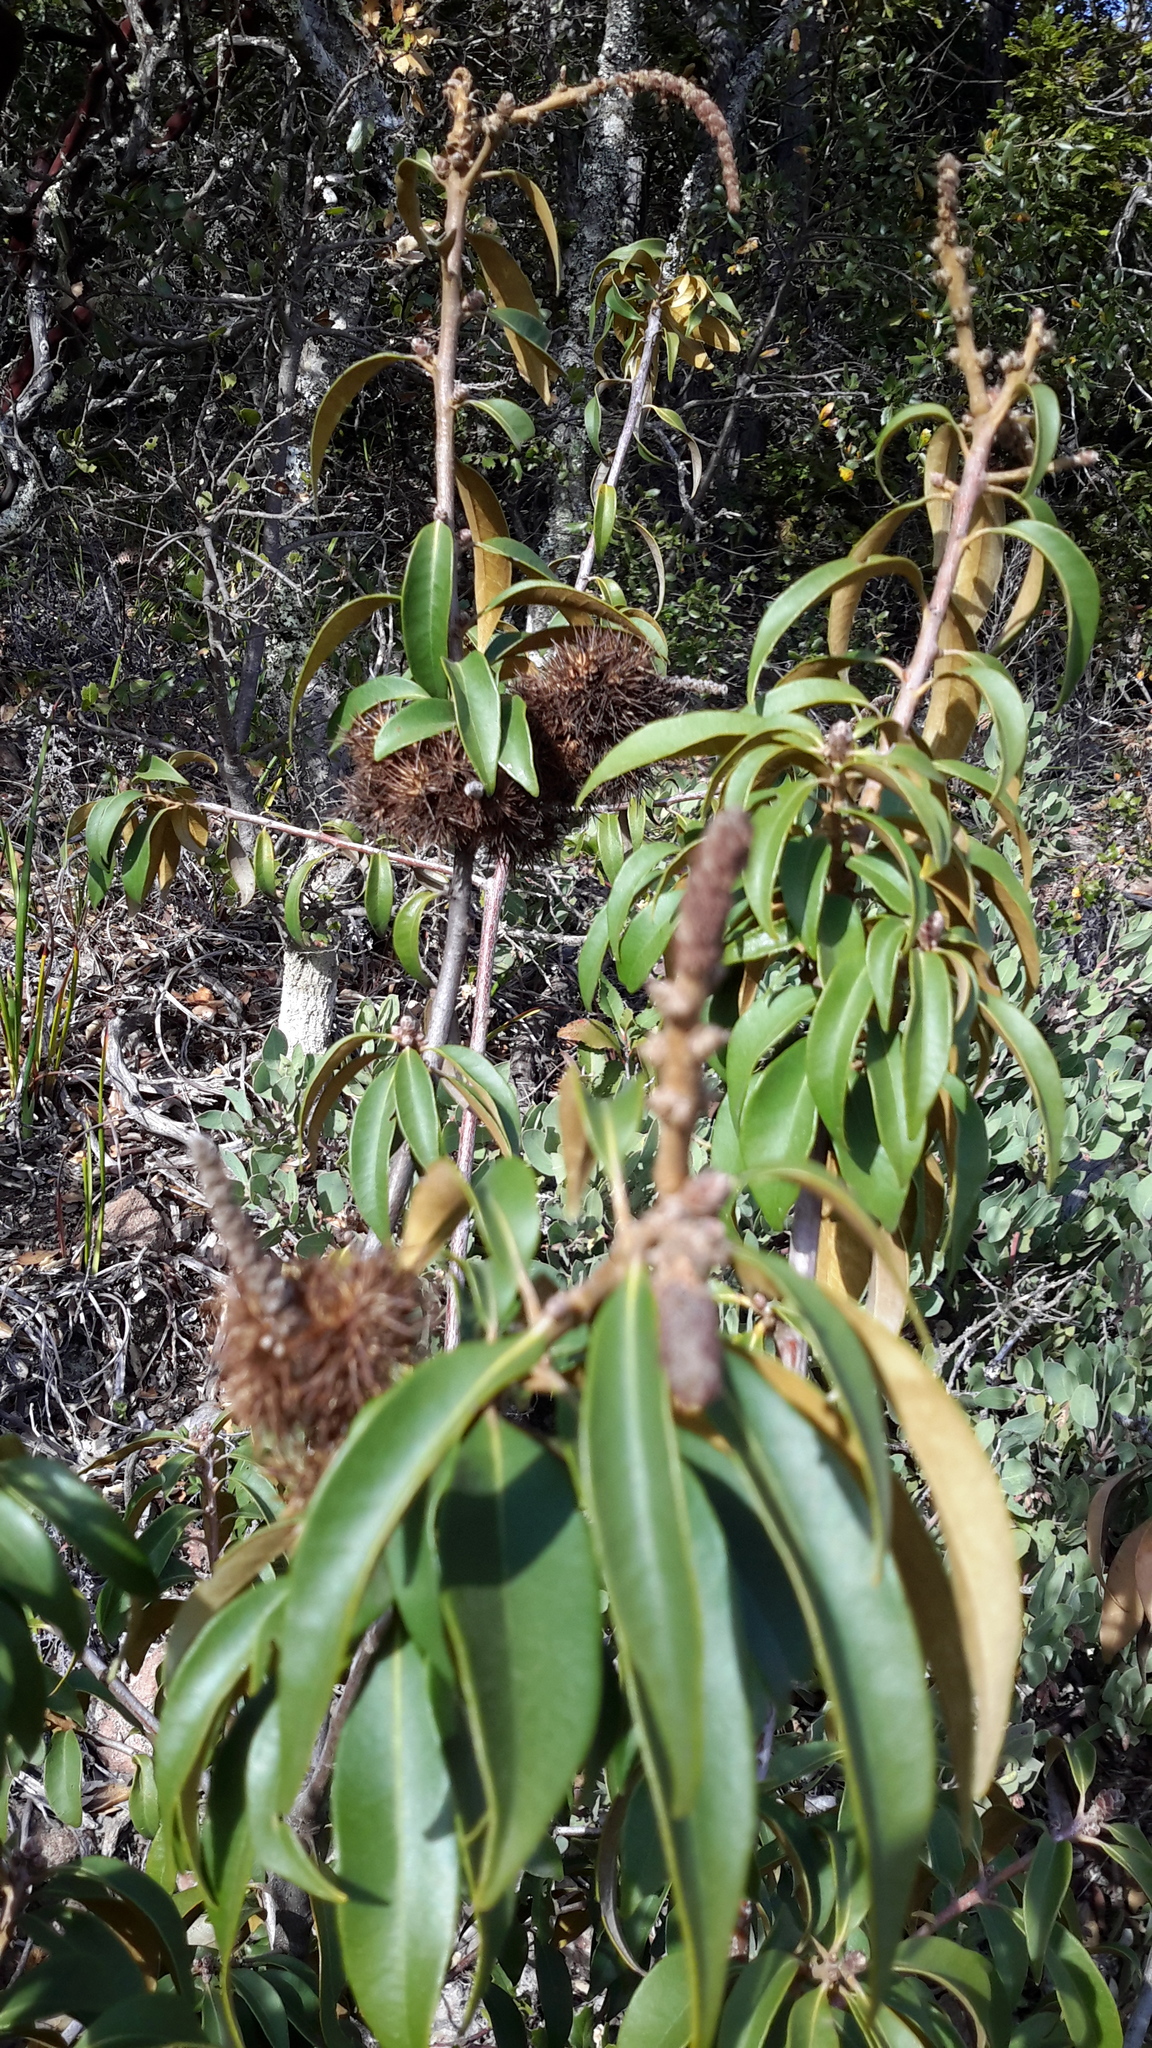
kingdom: Plantae
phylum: Tracheophyta
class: Magnoliopsida
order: Fagales
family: Fagaceae
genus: Chrysolepis
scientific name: Chrysolepis chrysophylla
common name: Giant chinquapin
